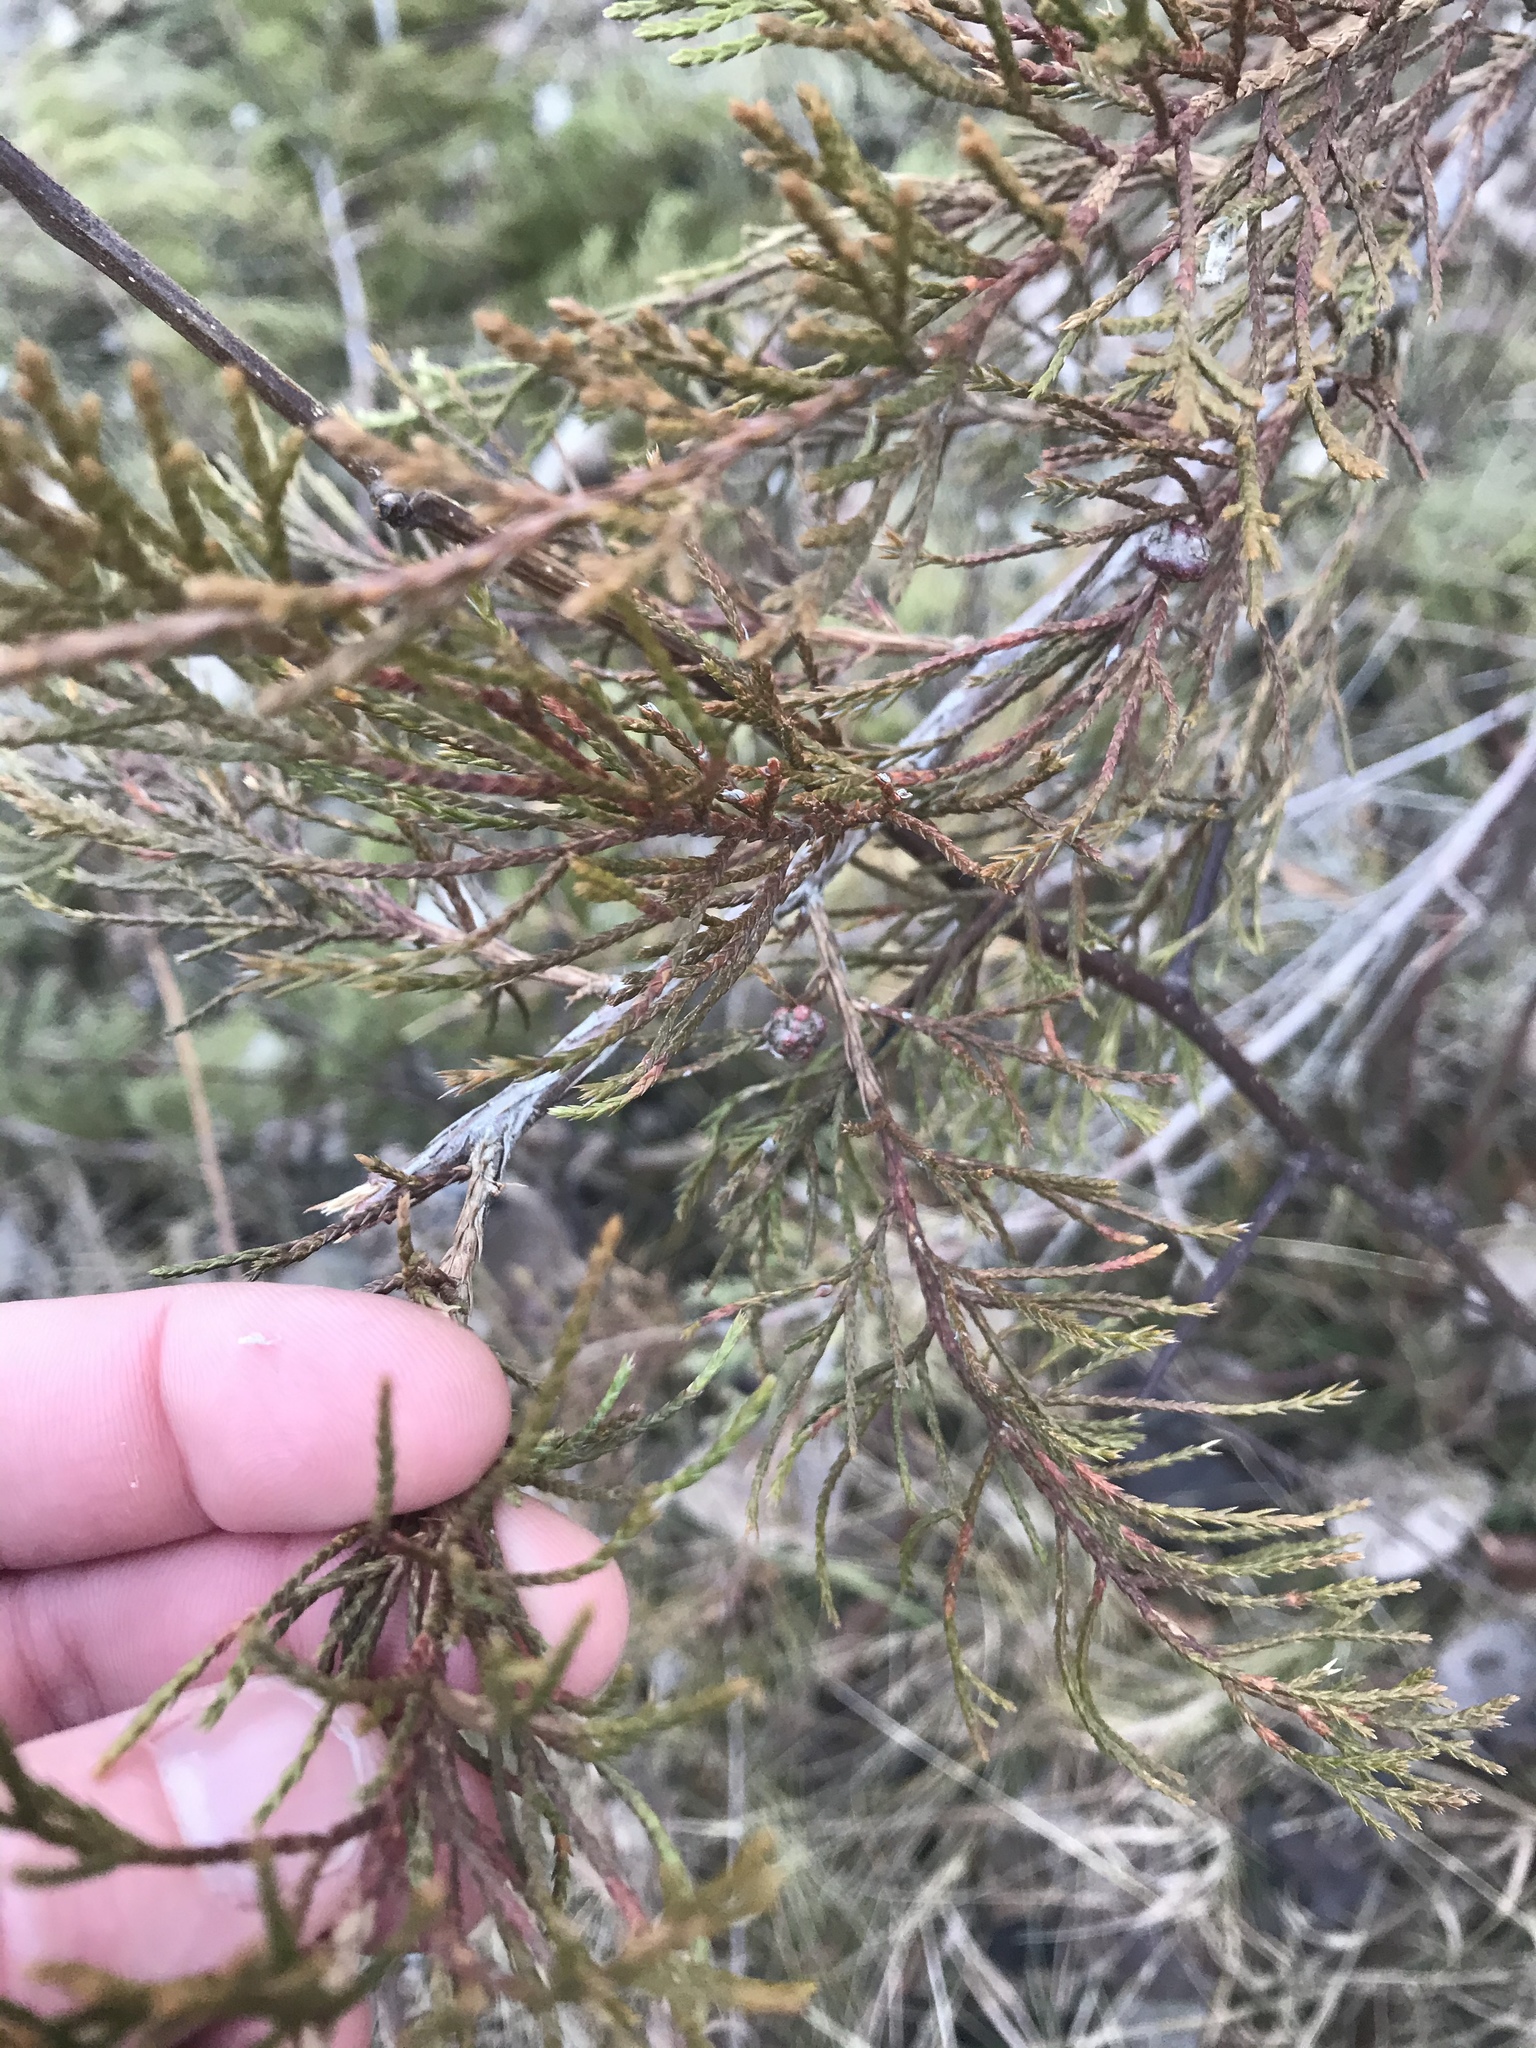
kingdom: Plantae
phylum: Tracheophyta
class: Pinopsida
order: Pinales
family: Cupressaceae
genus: Juniperus
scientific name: Juniperus virginiana
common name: Red juniper
